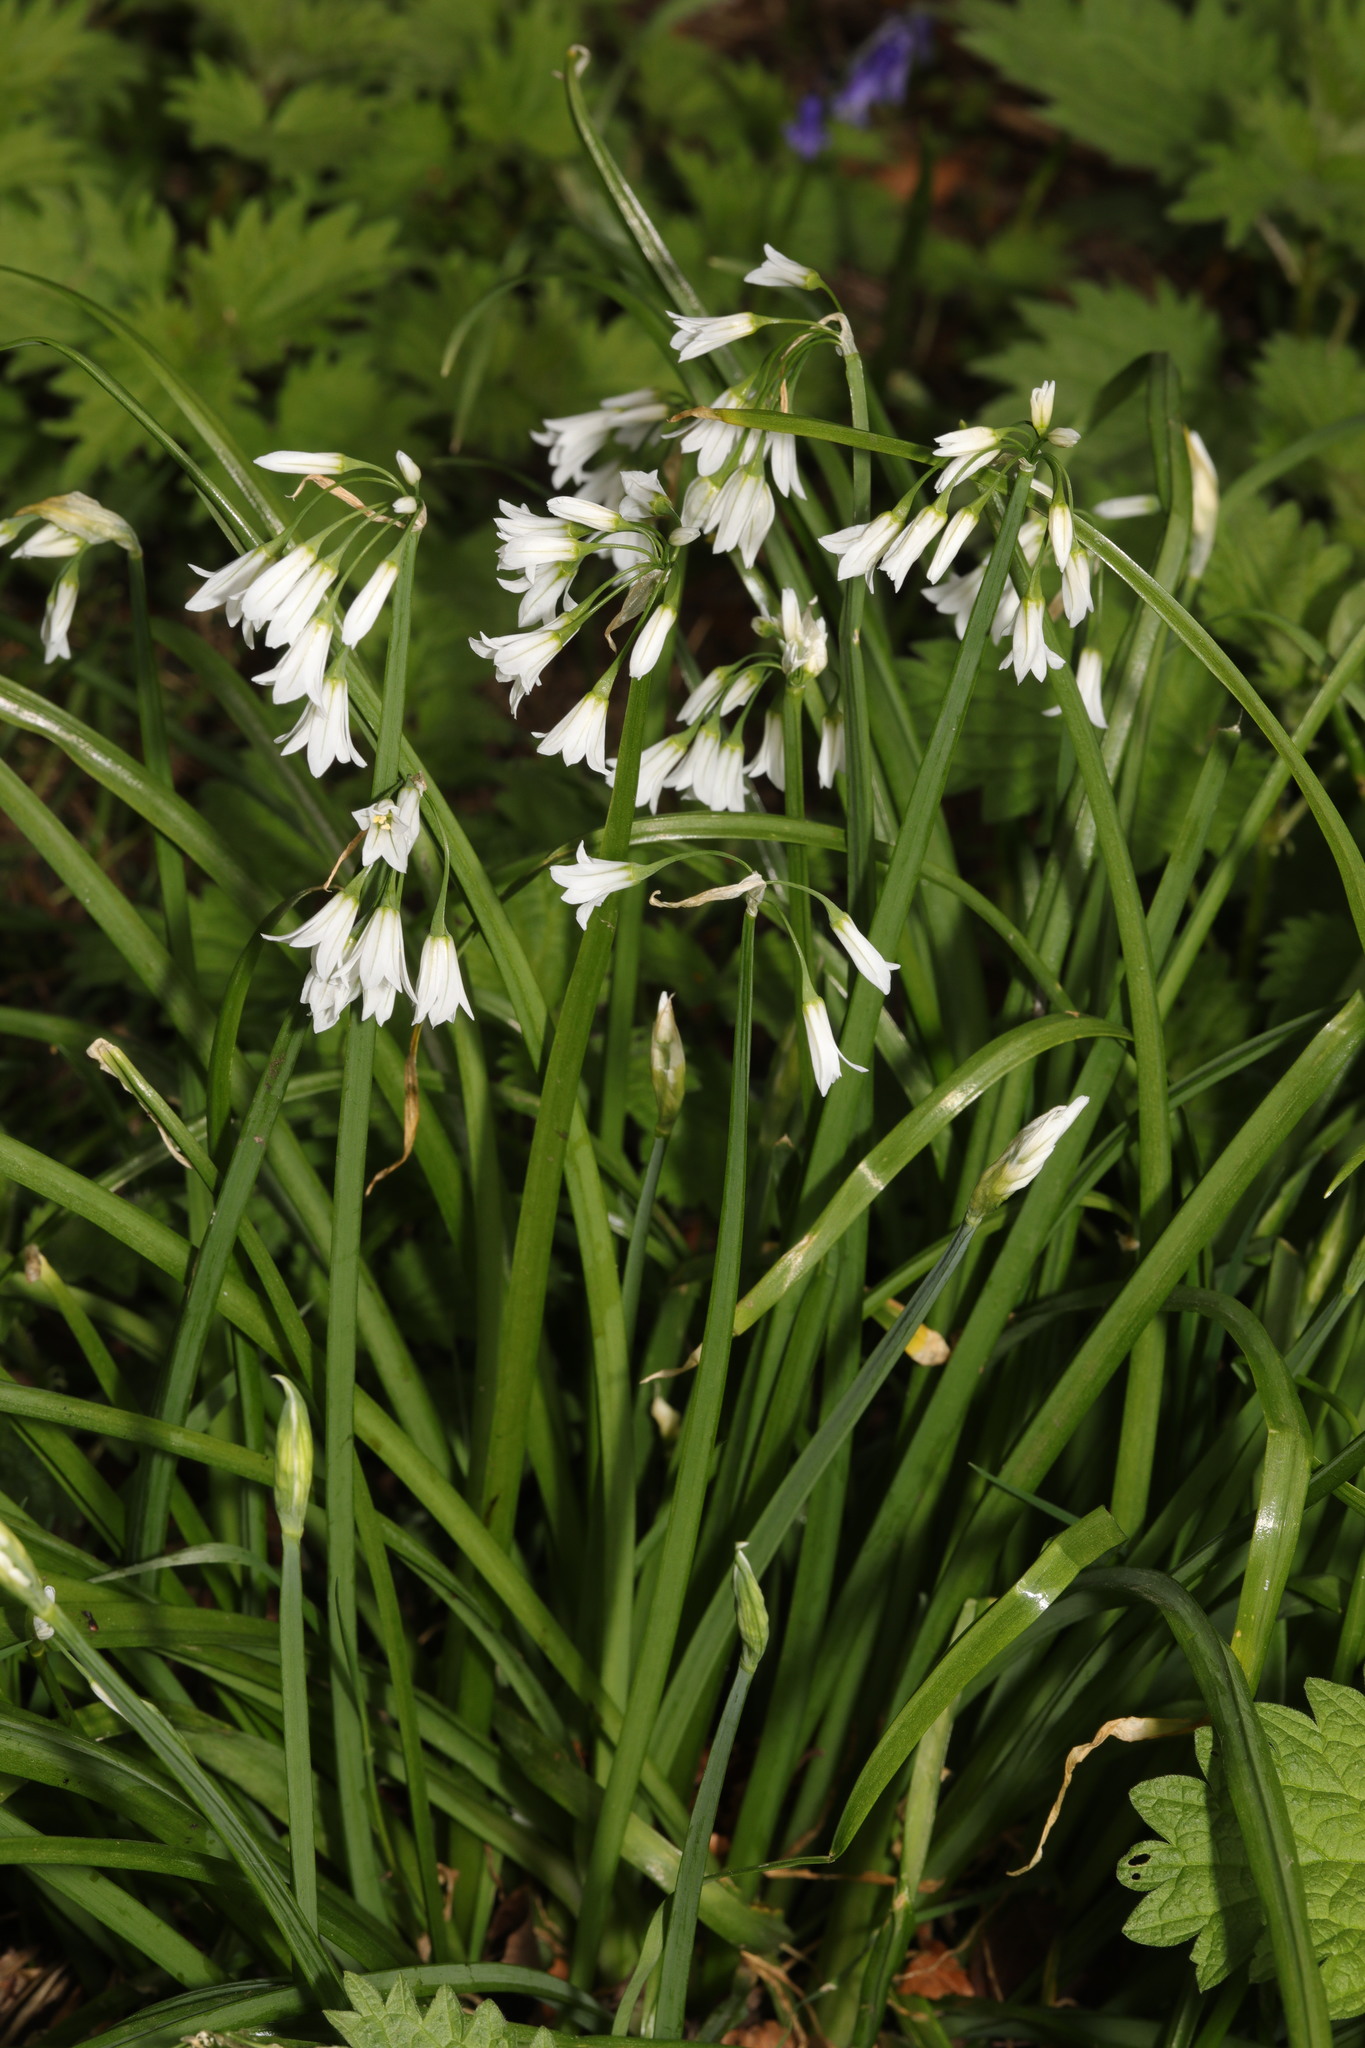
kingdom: Plantae
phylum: Tracheophyta
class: Liliopsida
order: Asparagales
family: Amaryllidaceae
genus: Allium
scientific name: Allium triquetrum
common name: Three-cornered garlic
